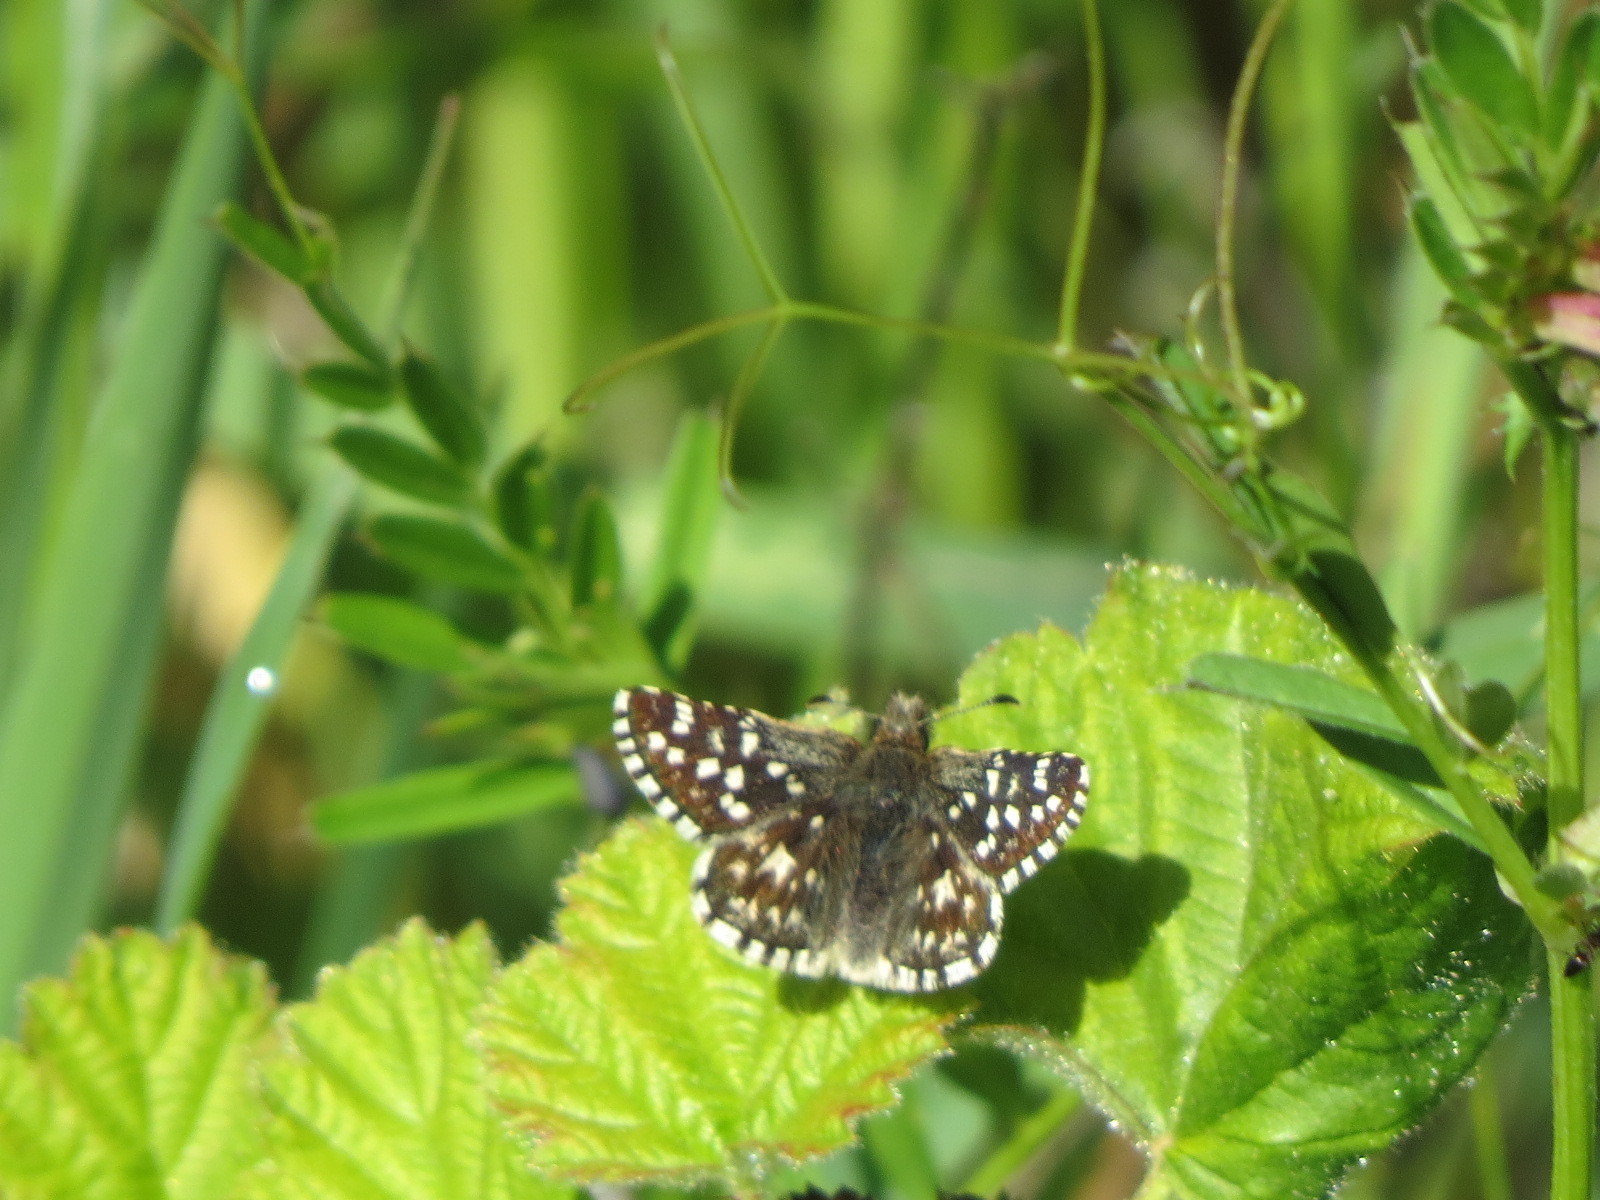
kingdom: Animalia
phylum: Arthropoda
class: Insecta
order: Lepidoptera
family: Hesperiidae
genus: Pyrgus
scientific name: Pyrgus ruralis
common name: Two-banded checkered-skipper
